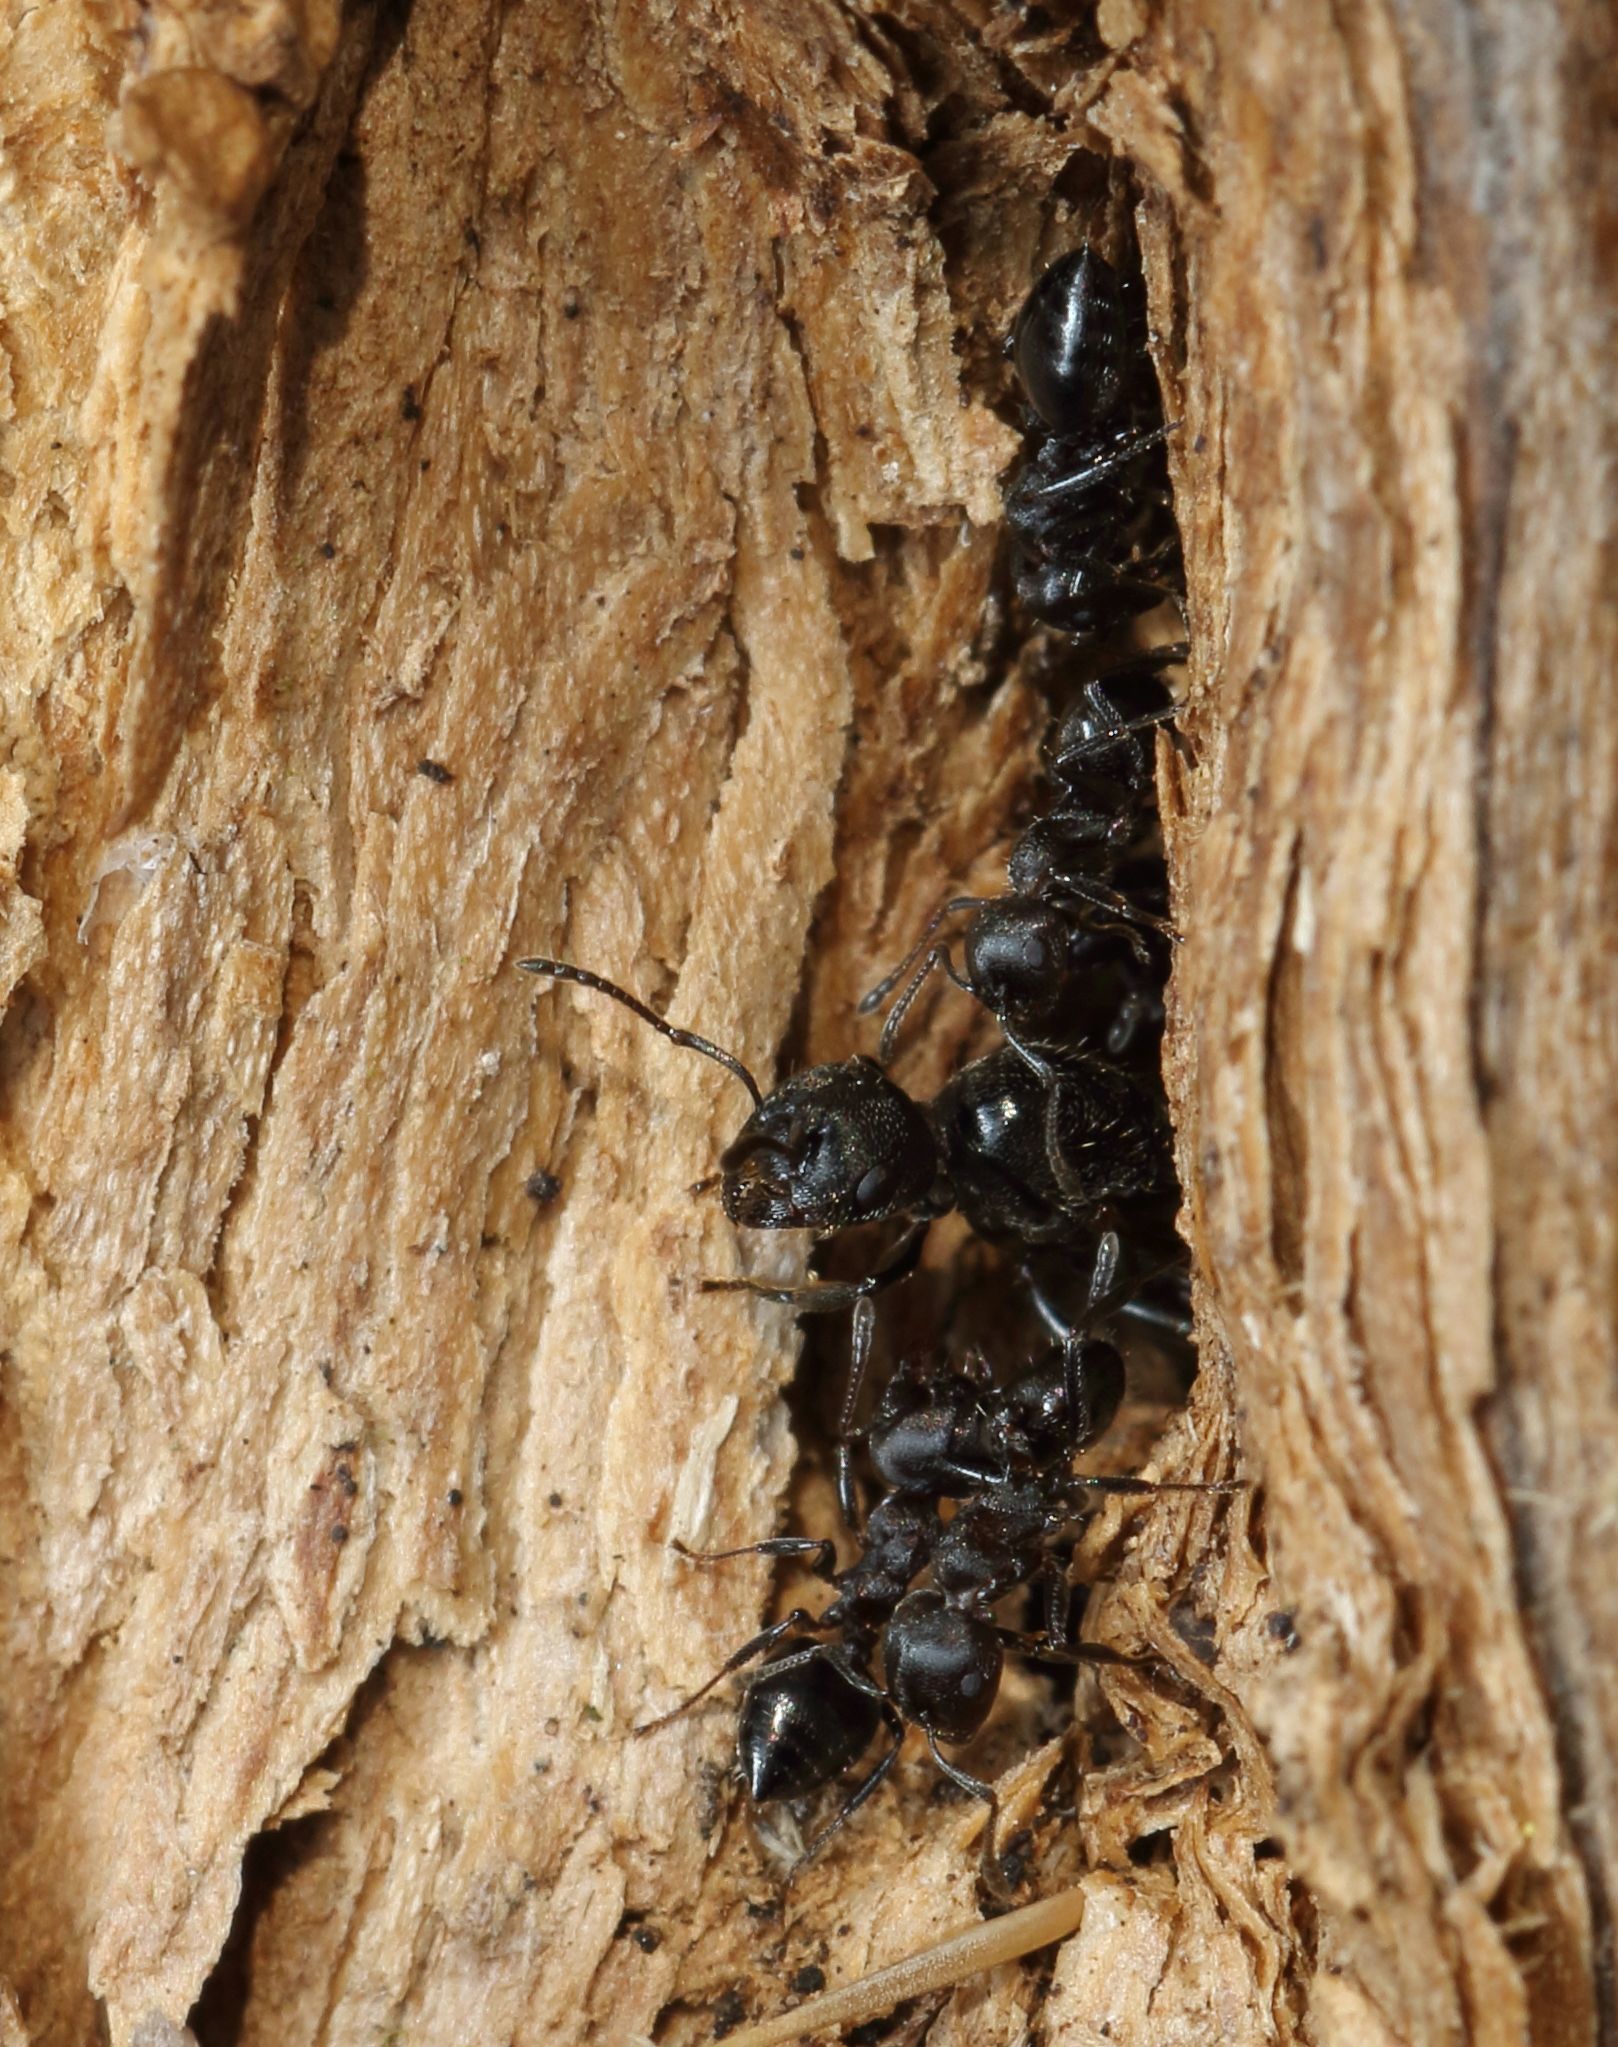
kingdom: Animalia
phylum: Arthropoda
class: Insecta
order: Hymenoptera
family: Formicidae
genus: Crematogaster
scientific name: Crematogaster peringueyi
